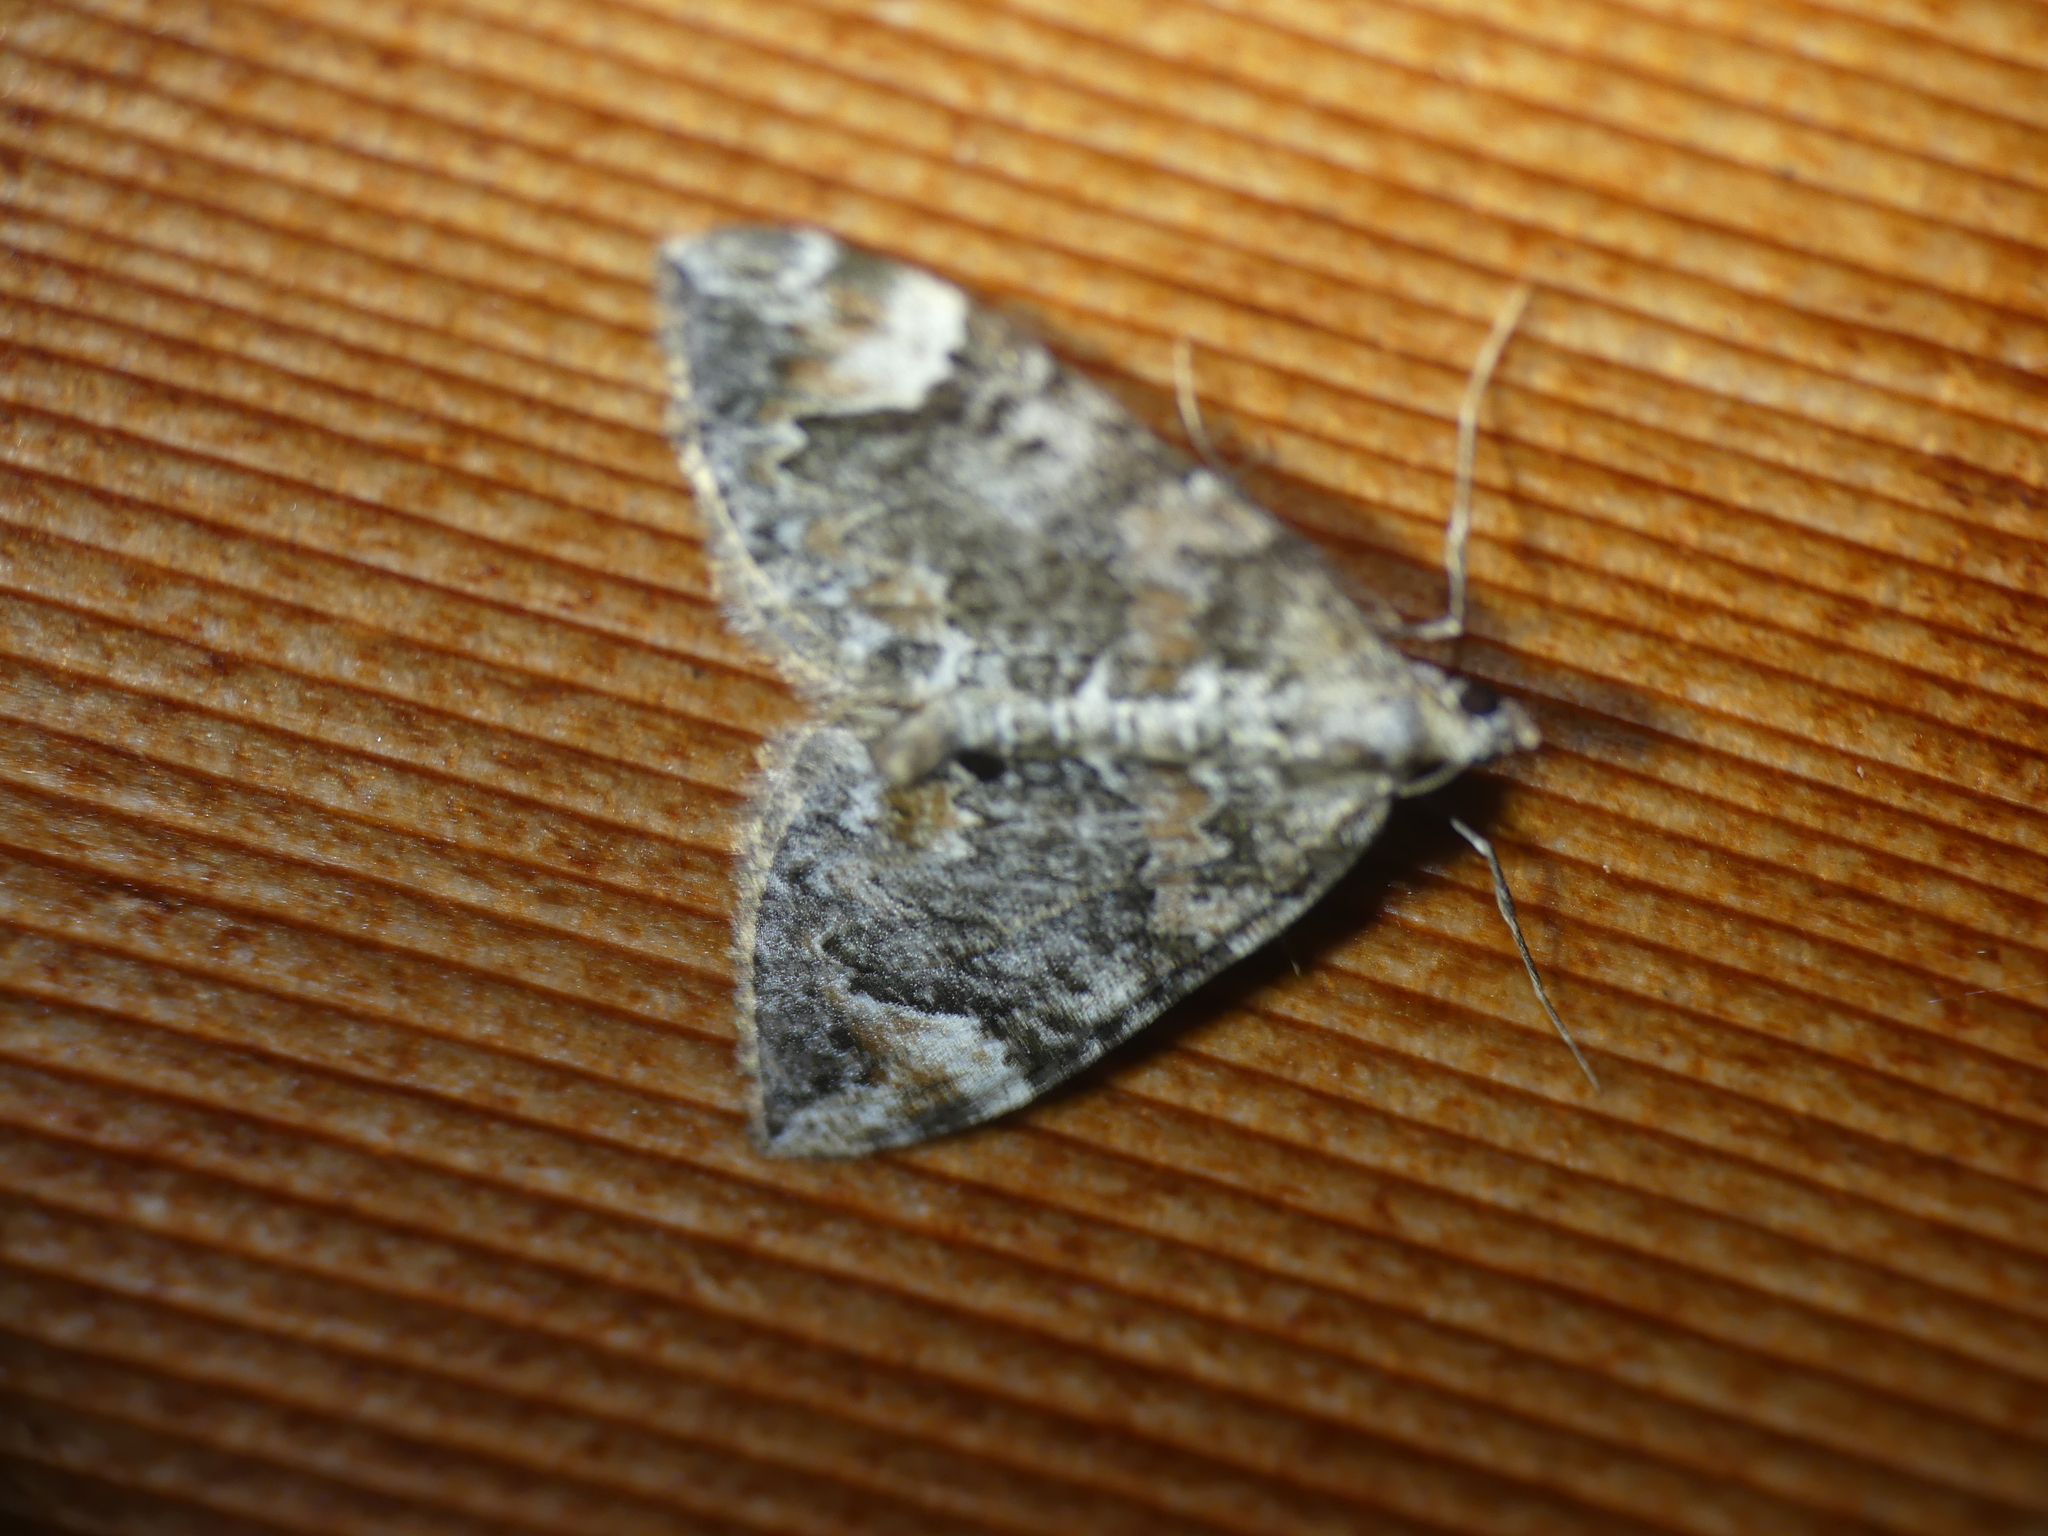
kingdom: Animalia
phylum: Arthropoda
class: Insecta
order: Lepidoptera
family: Geometridae
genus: Dysstroma
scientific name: Dysstroma citrata
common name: Dark marbled carpet
